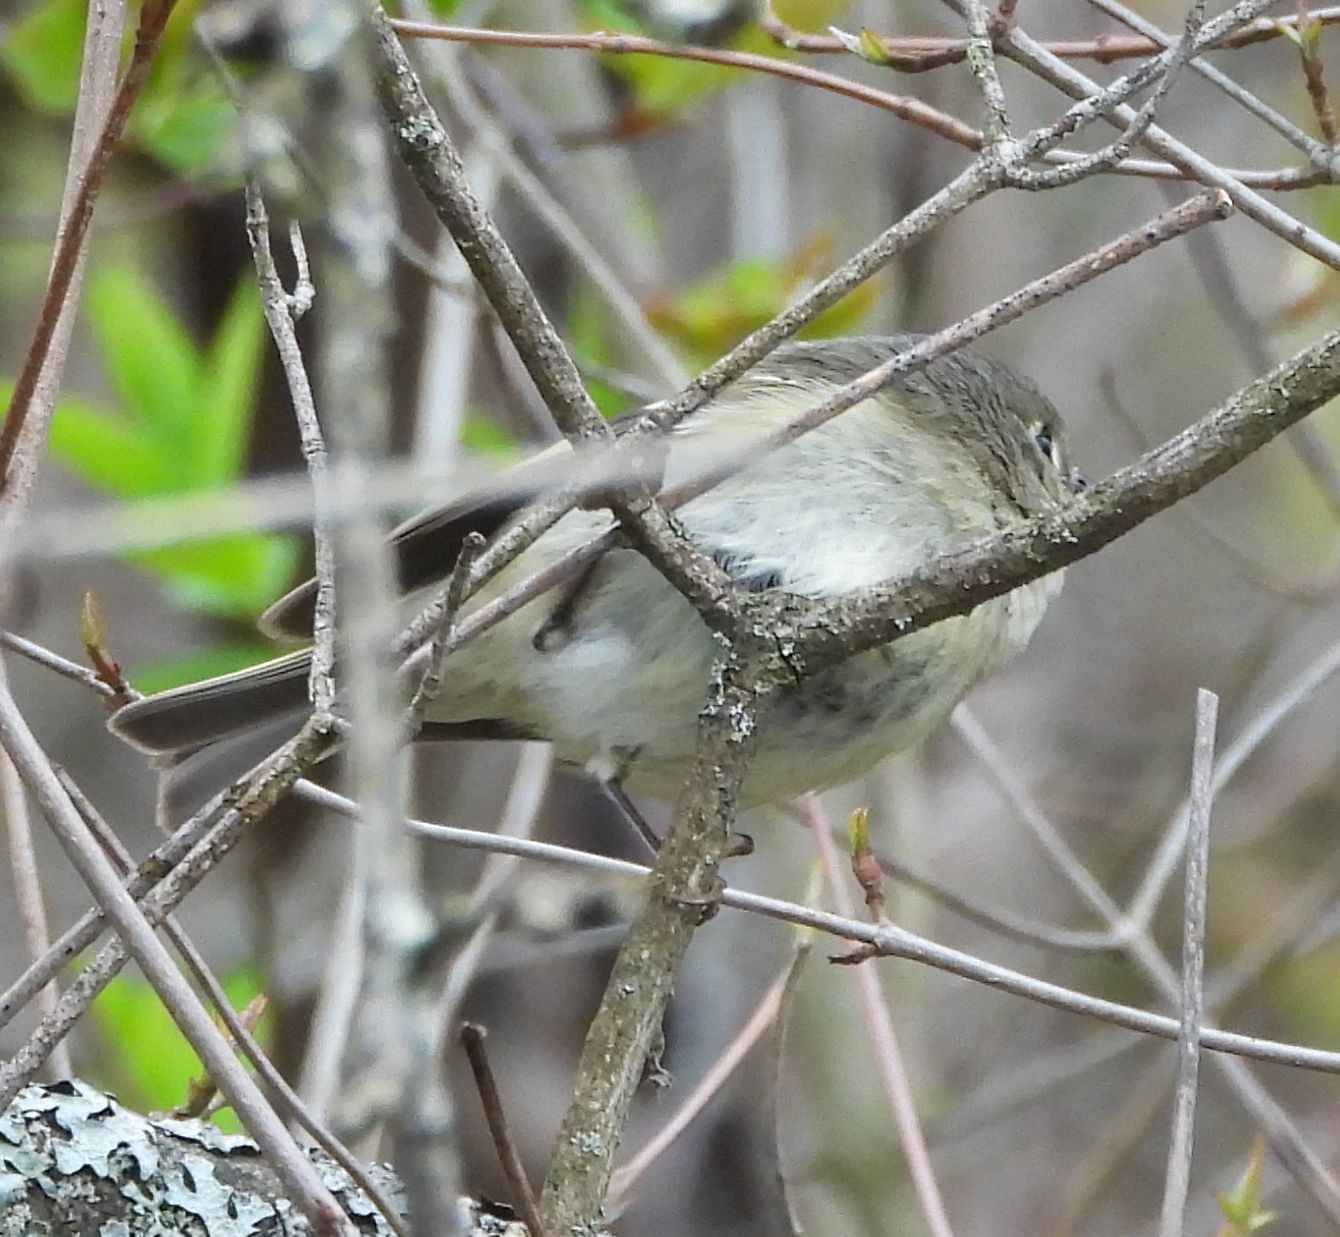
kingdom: Animalia
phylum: Chordata
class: Aves
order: Passeriformes
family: Regulidae
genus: Regulus
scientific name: Regulus calendula
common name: Ruby-crowned kinglet
